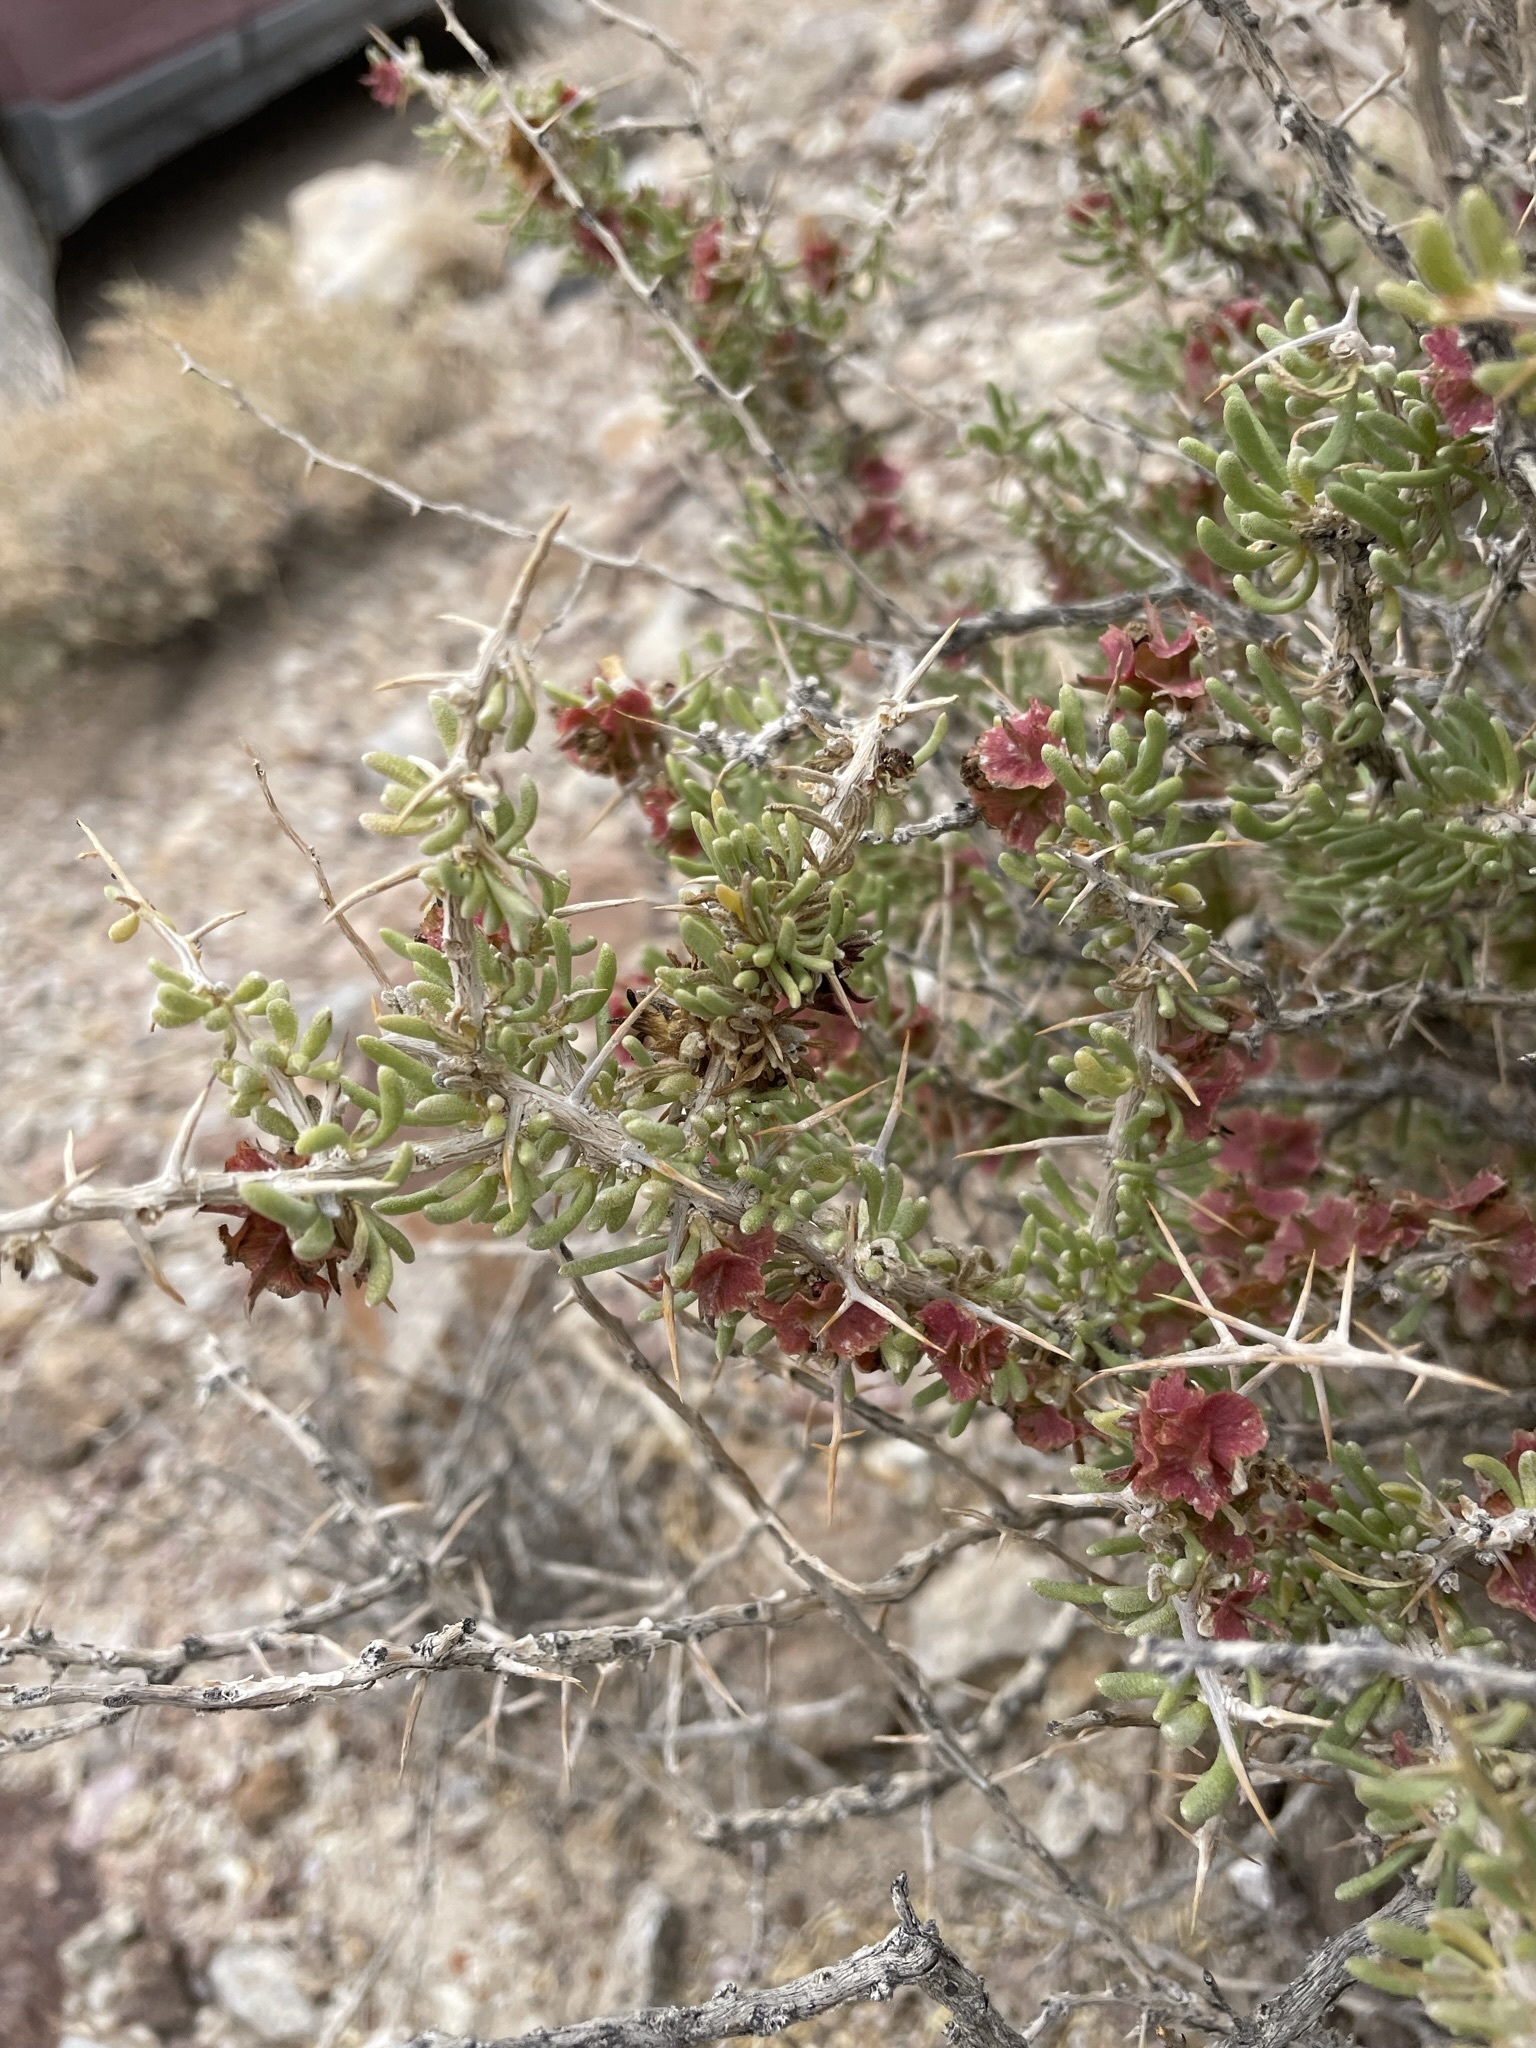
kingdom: Plantae
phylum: Tracheophyta
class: Magnoliopsida
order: Caryophyllales
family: Sarcobataceae
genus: Sarcobatus
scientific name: Sarcobatus baileyi
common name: Bailey greasewood
